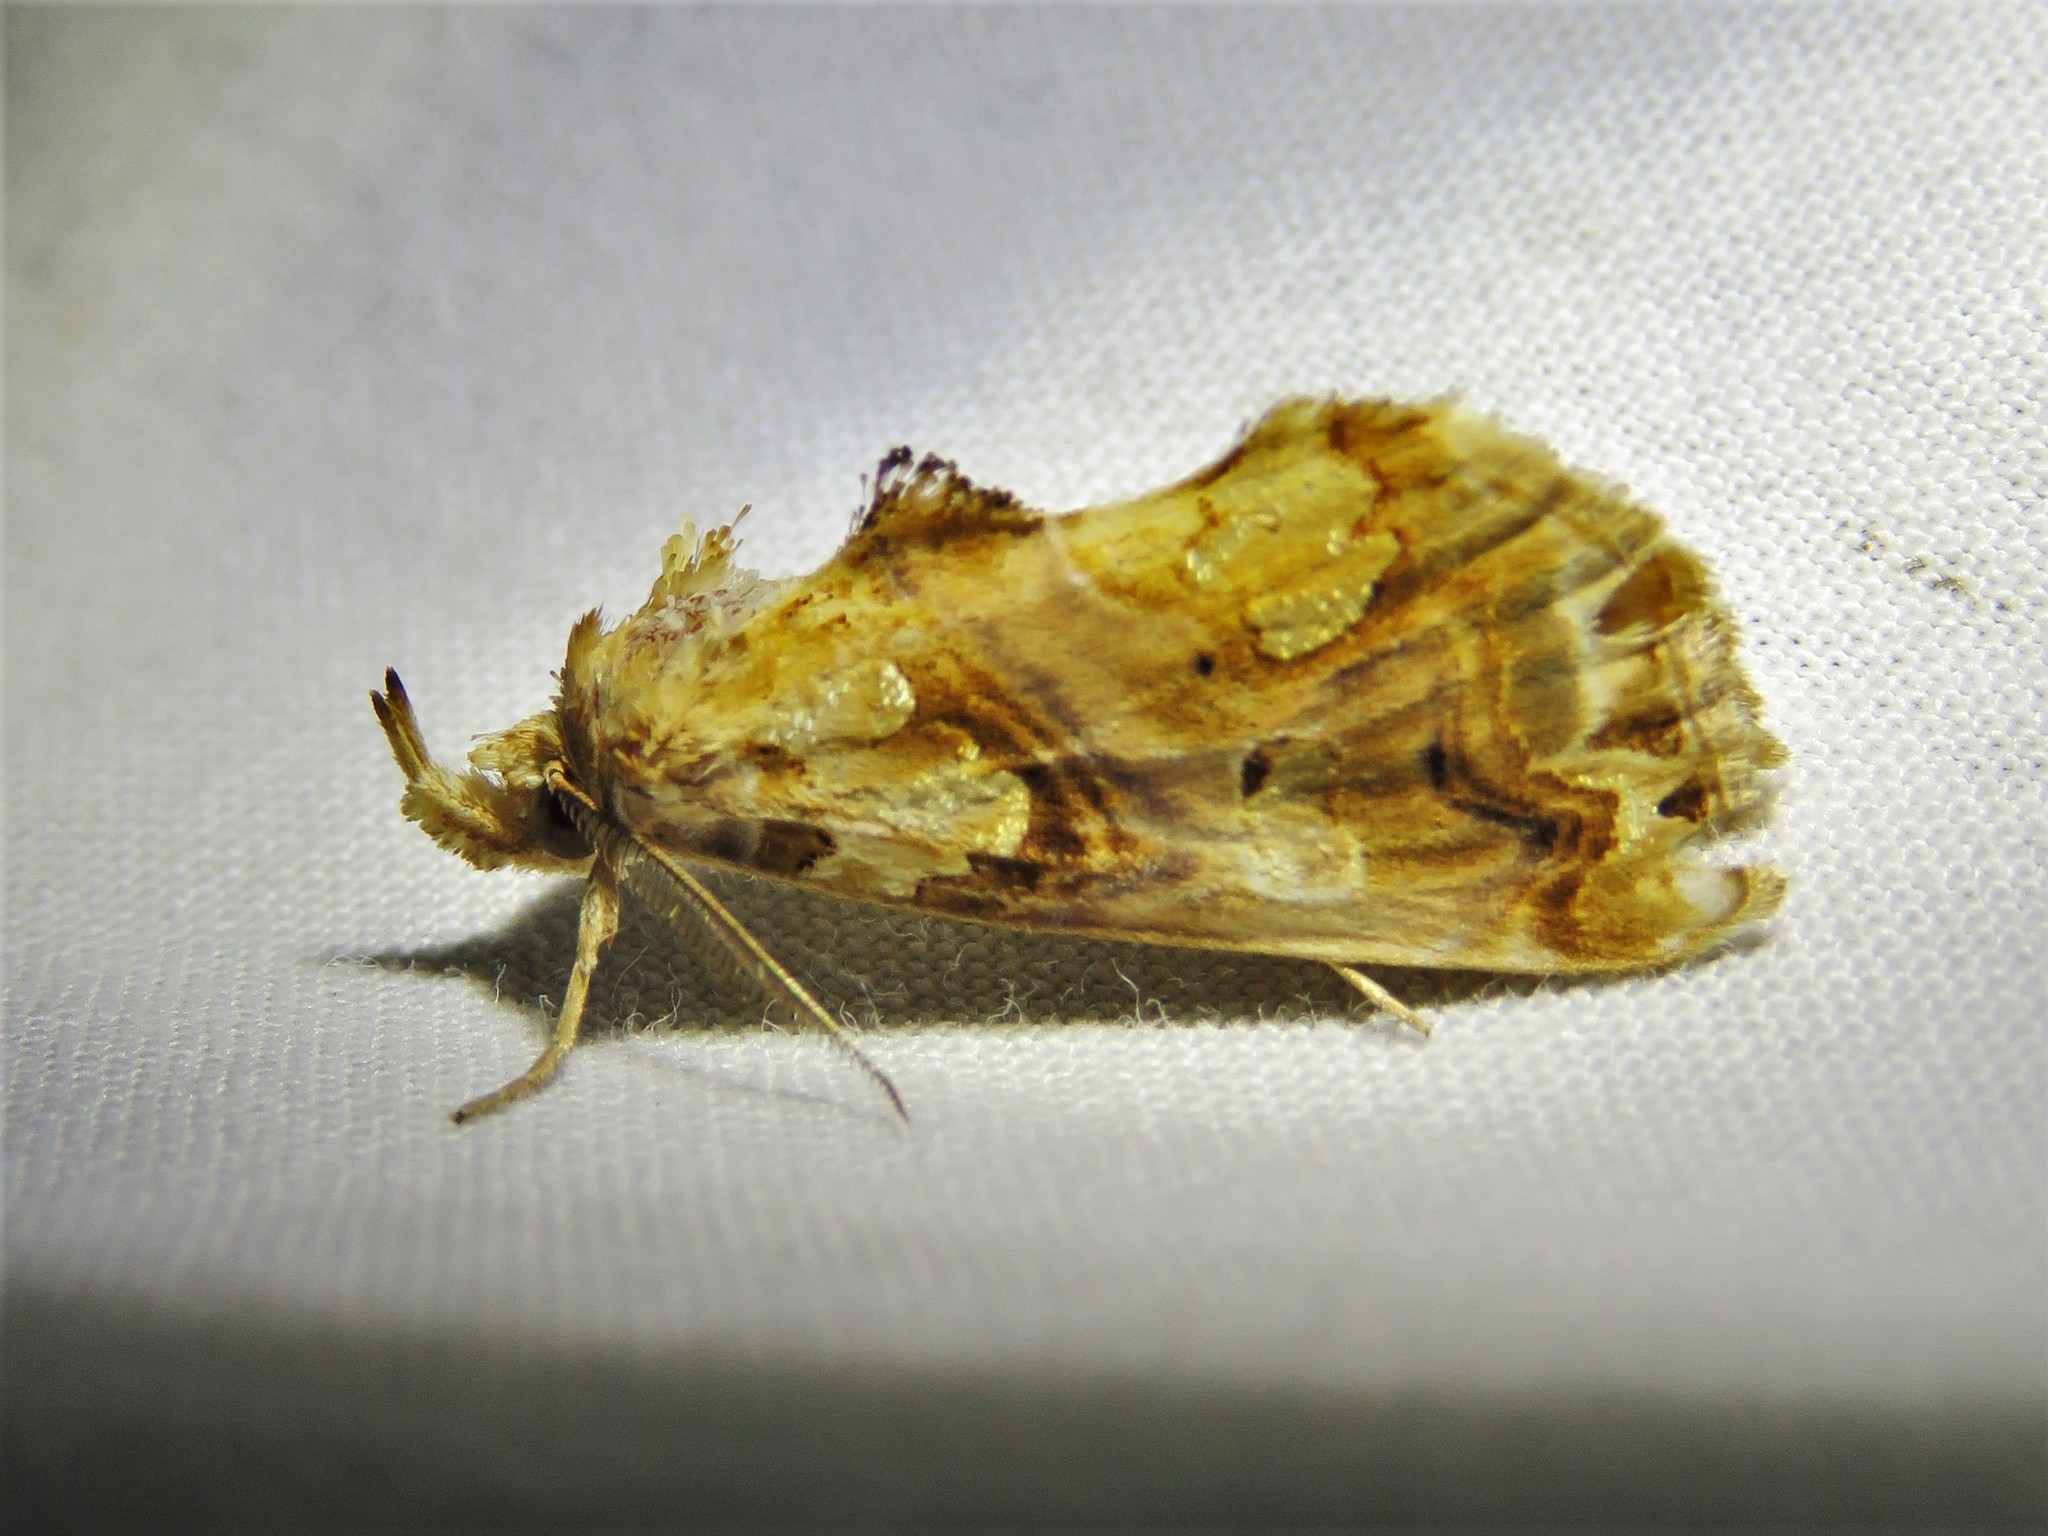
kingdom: Animalia
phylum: Arthropoda
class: Insecta
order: Lepidoptera
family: Erebidae
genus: Plusiodonta
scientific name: Plusiodonta compressipalpis
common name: Moonseed moth
